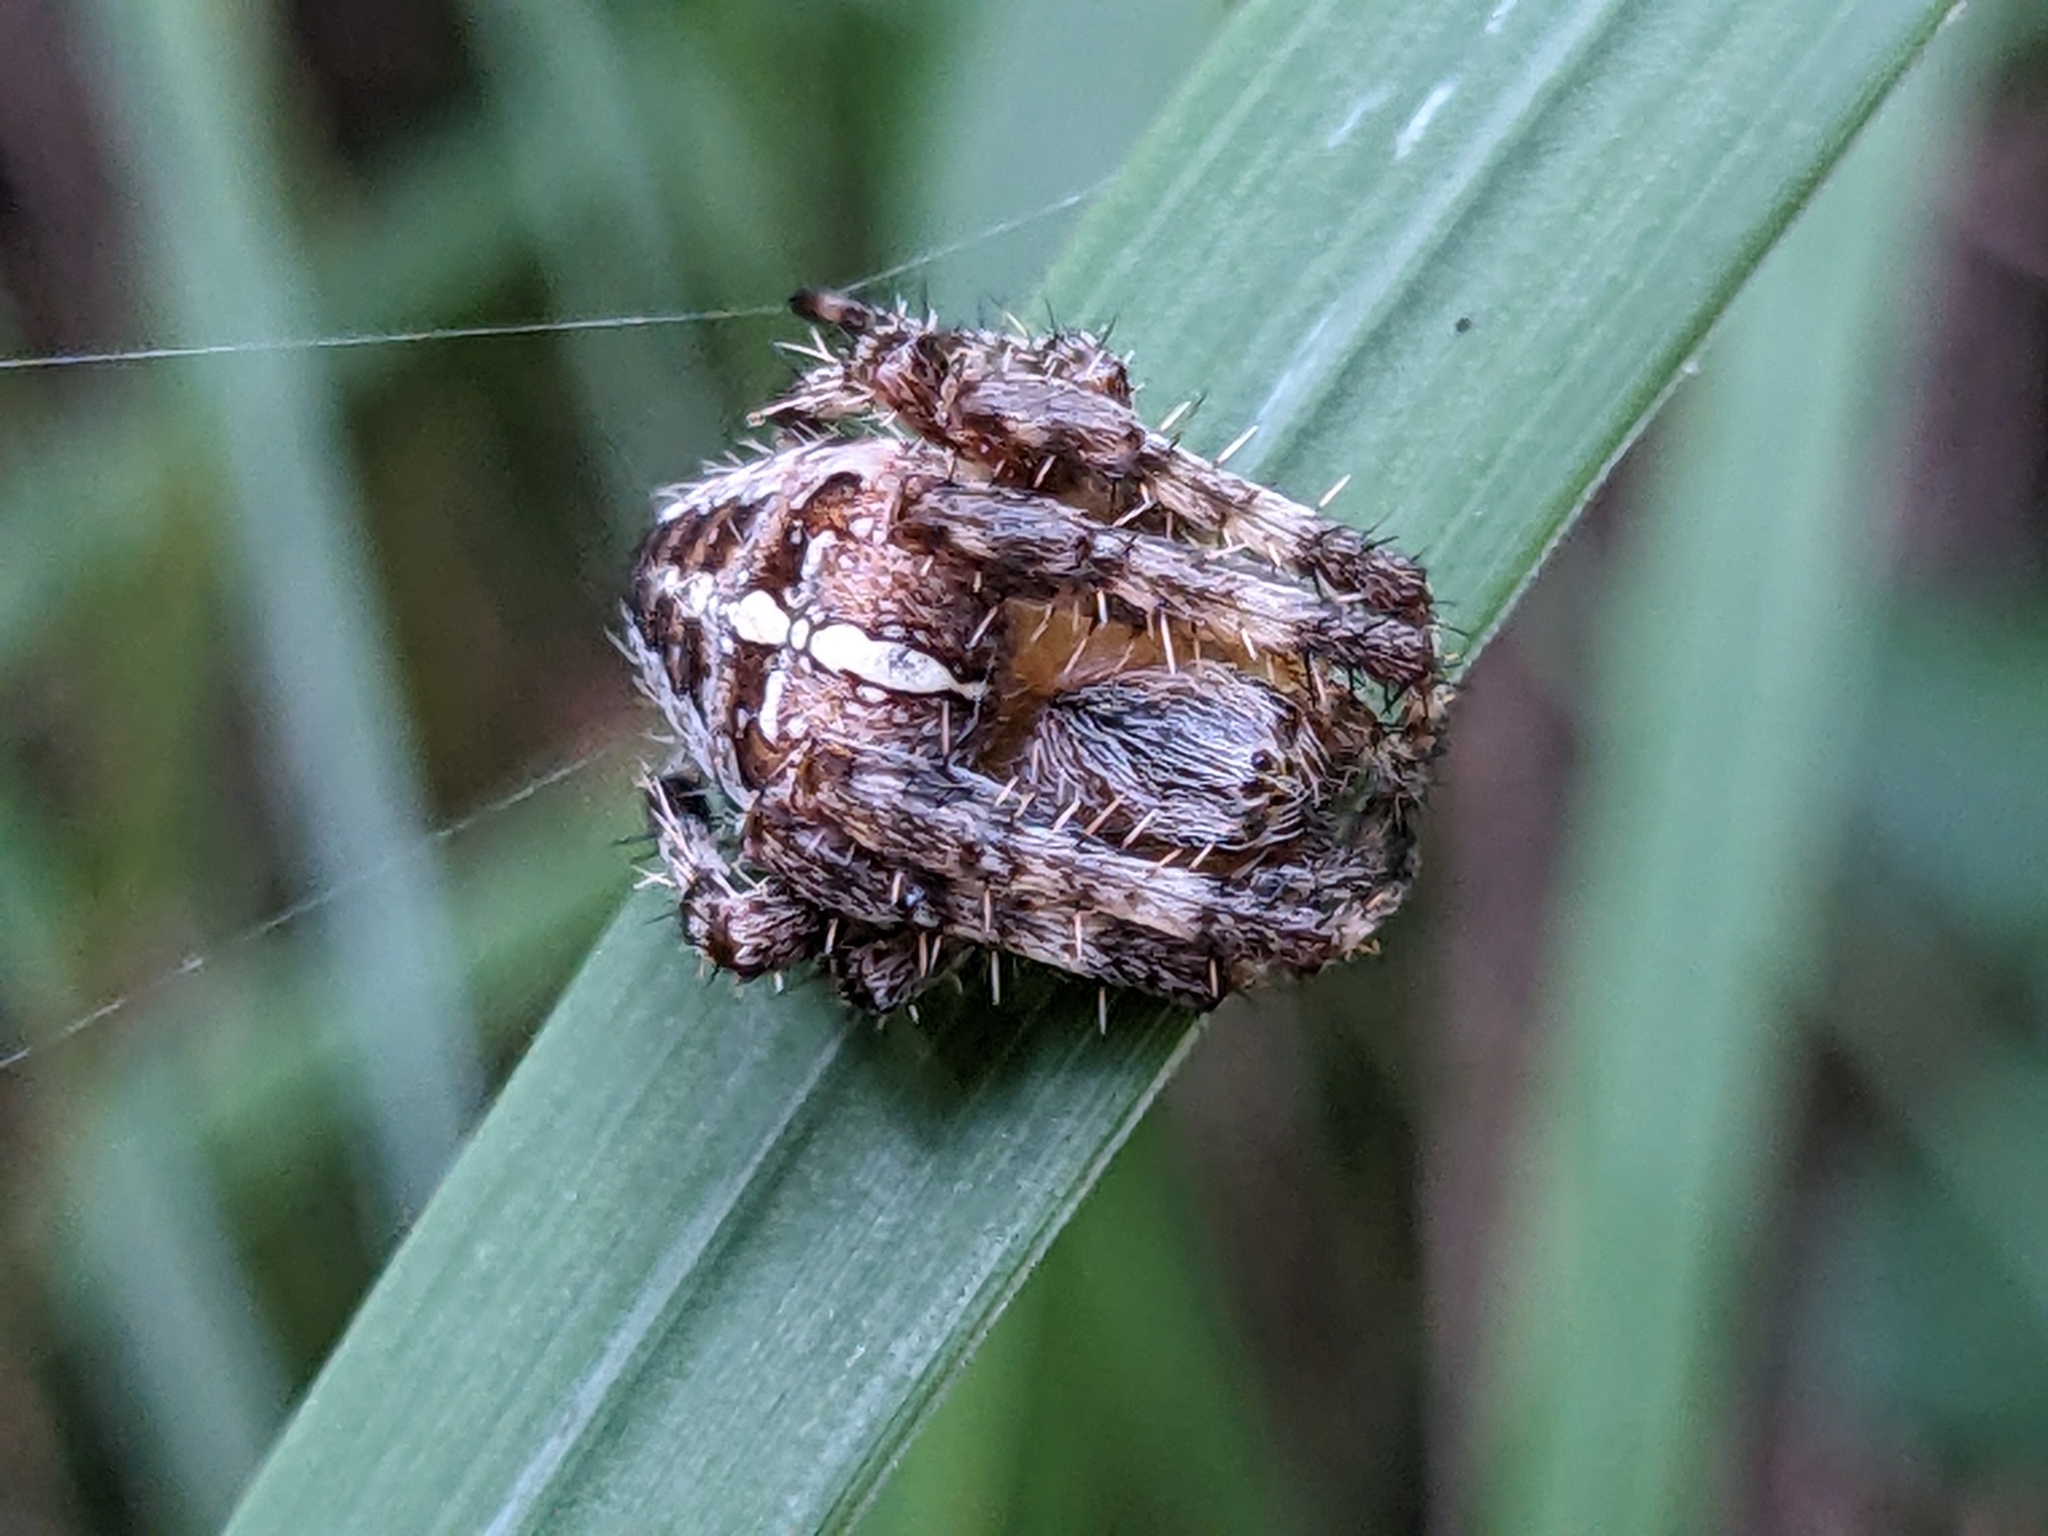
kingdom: Animalia
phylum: Arthropoda
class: Arachnida
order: Araneae
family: Araneidae
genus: Araneus
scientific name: Araneus diadematus
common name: Cross orbweaver
